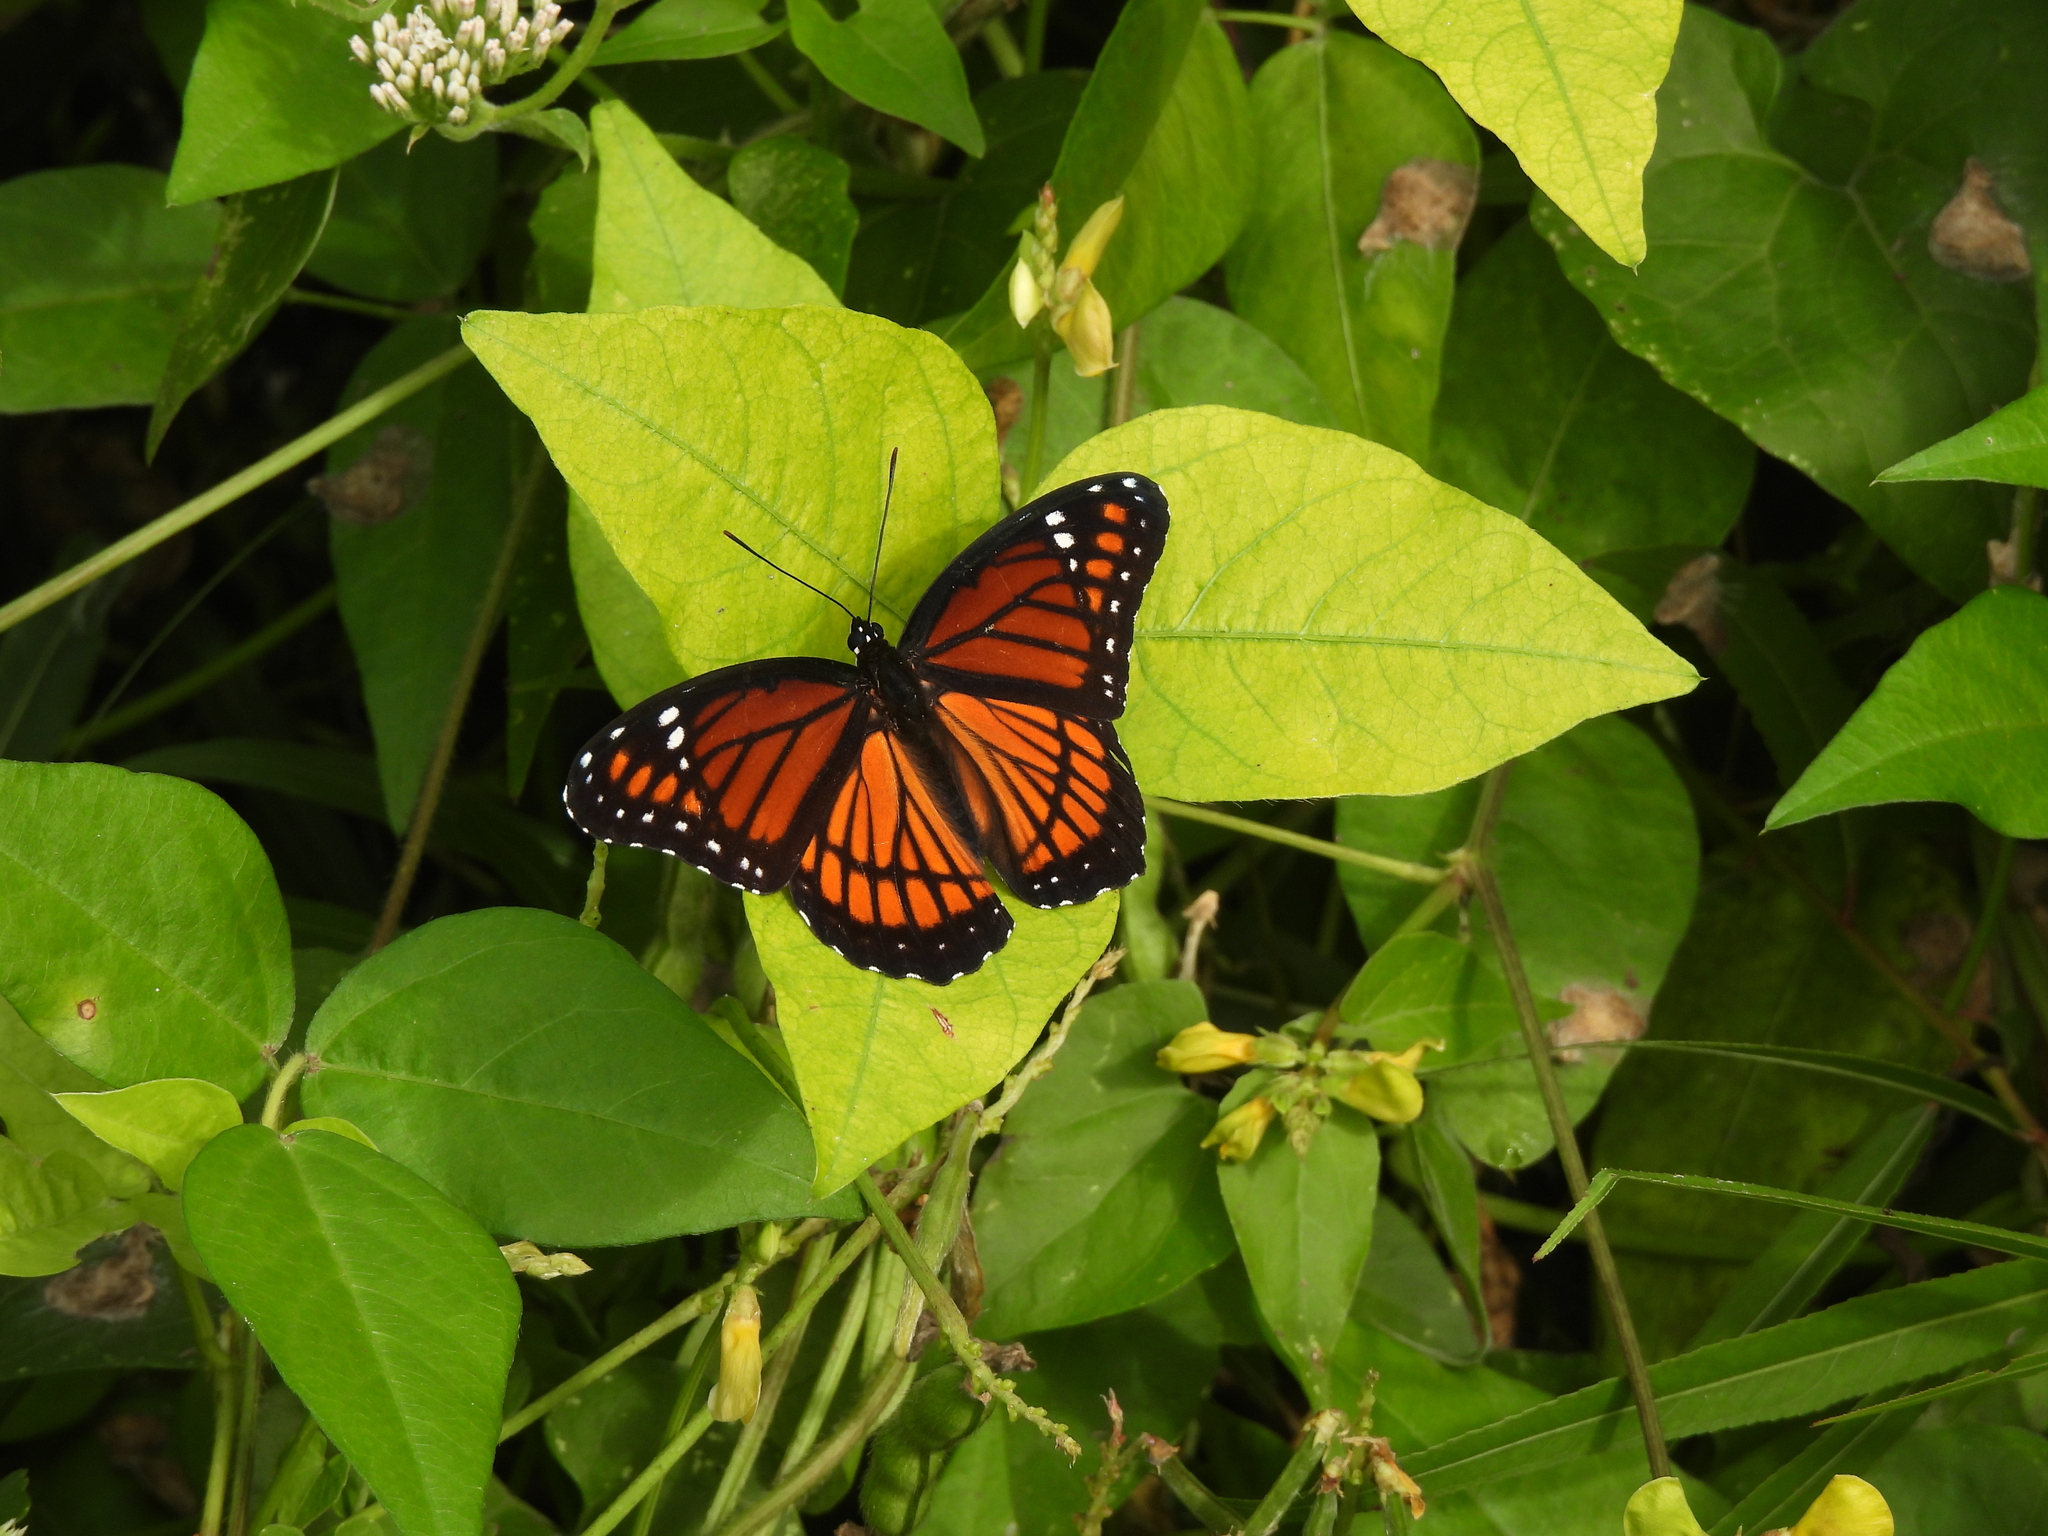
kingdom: Animalia
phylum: Arthropoda
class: Insecta
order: Lepidoptera
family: Nymphalidae
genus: Limenitis
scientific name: Limenitis archippus
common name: Viceroy
